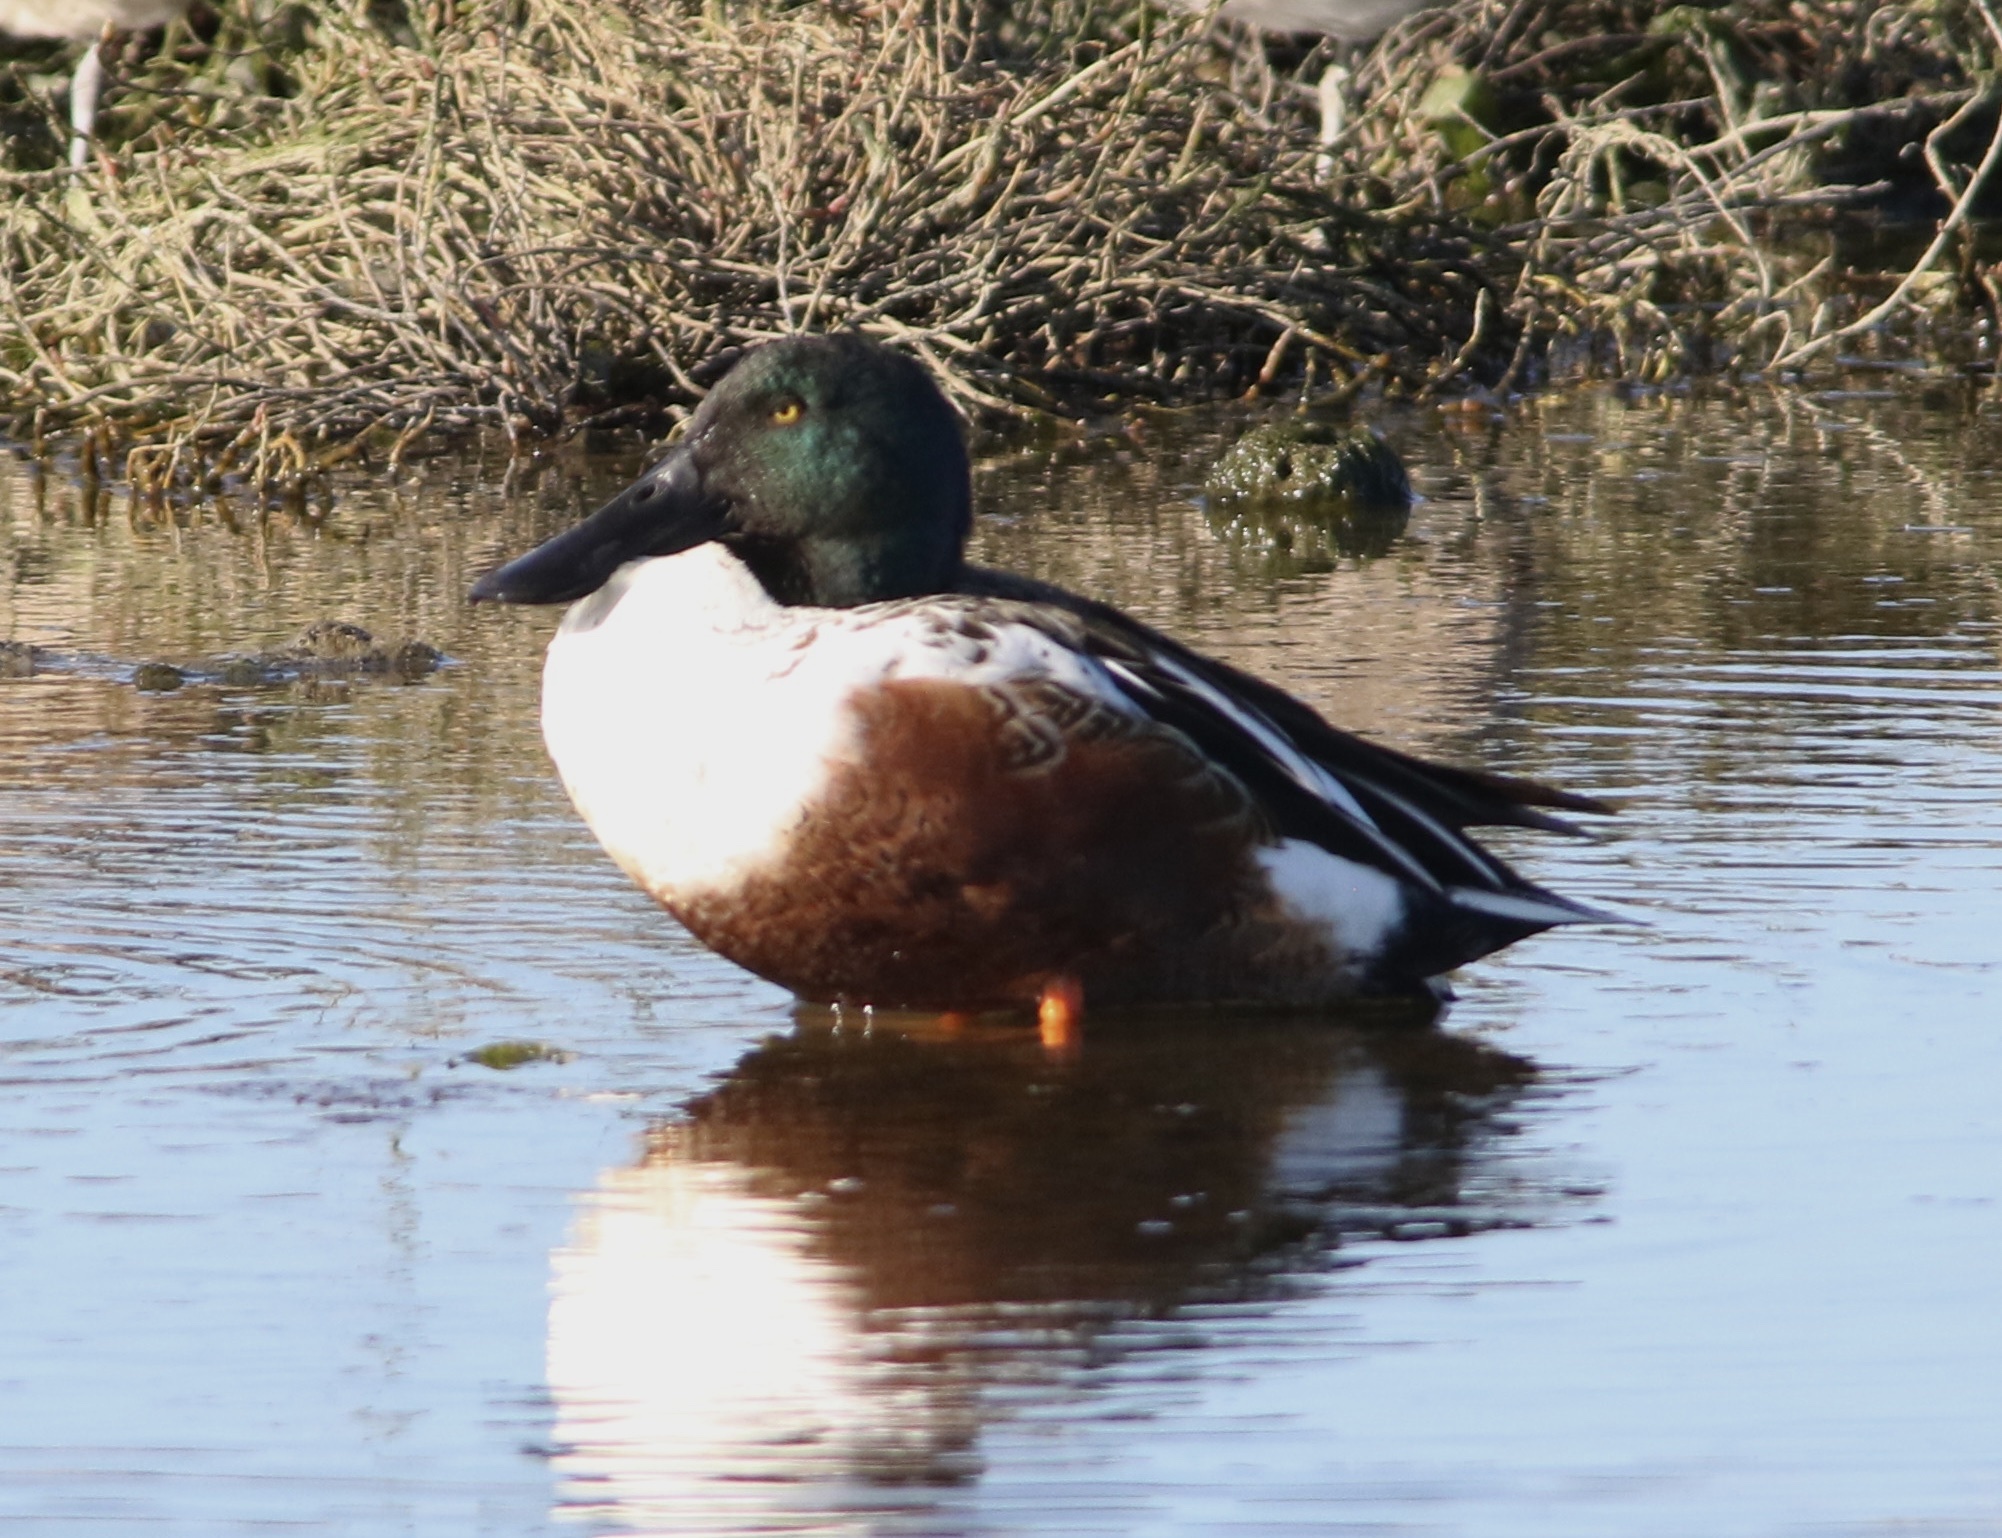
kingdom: Animalia
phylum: Chordata
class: Aves
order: Anseriformes
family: Anatidae
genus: Spatula
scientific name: Spatula clypeata
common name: Northern shoveler
